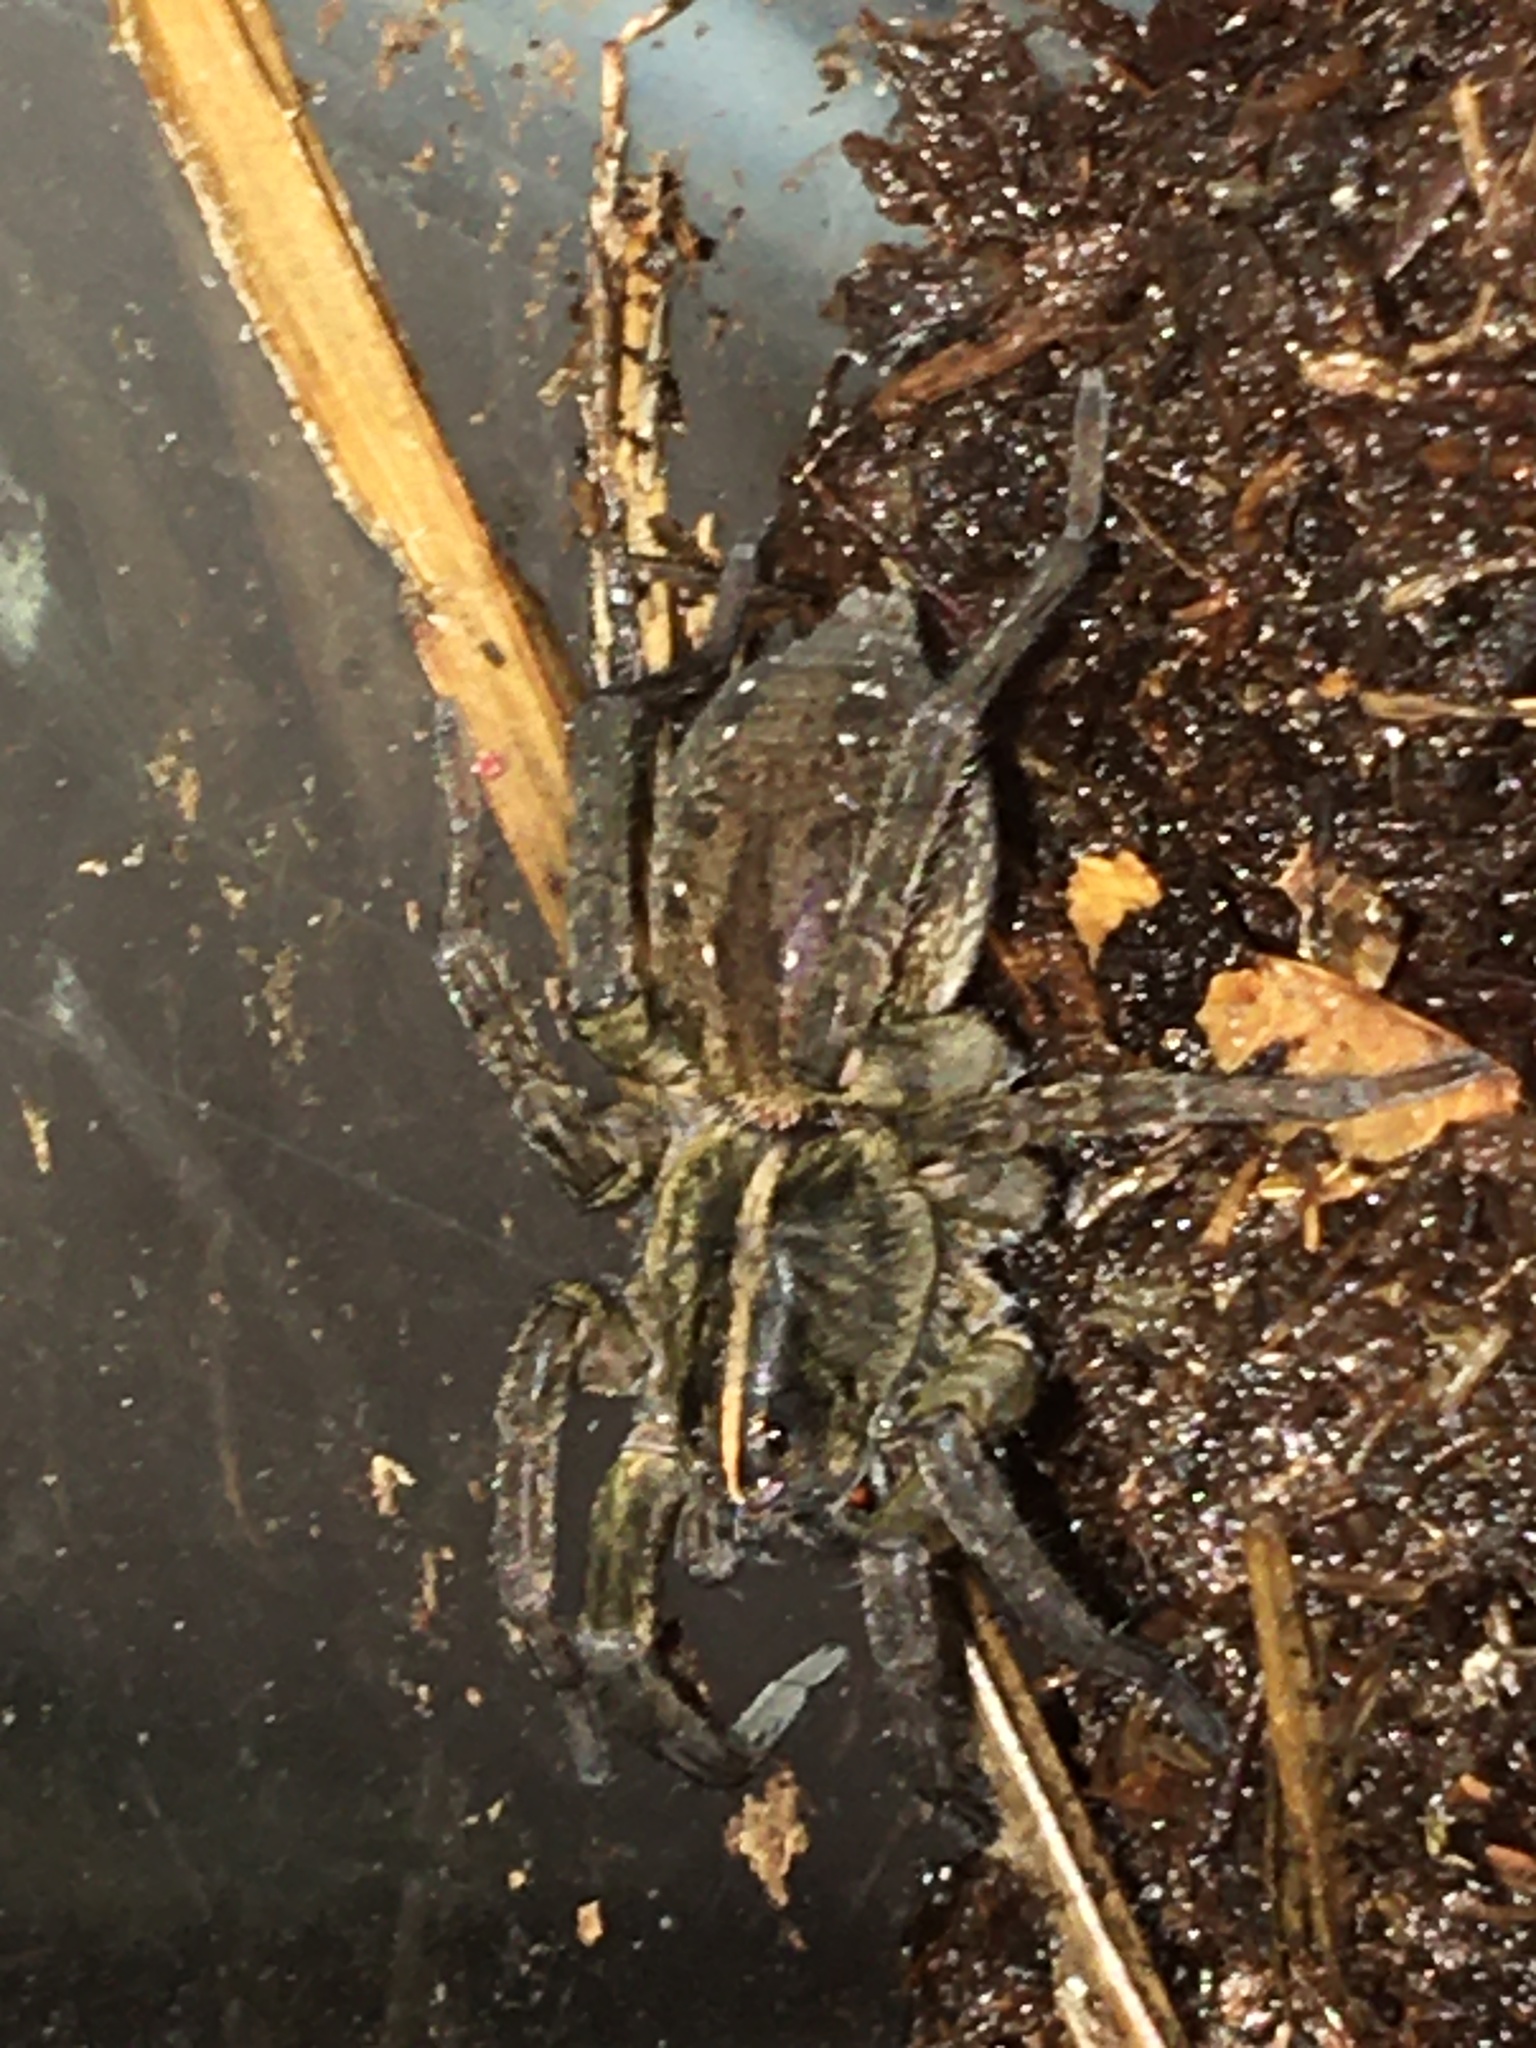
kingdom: Animalia
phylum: Arthropoda
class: Arachnida
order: Araneae
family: Lycosidae
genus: Tigrosa
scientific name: Tigrosa helluo
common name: Wetland giant wolf spider
